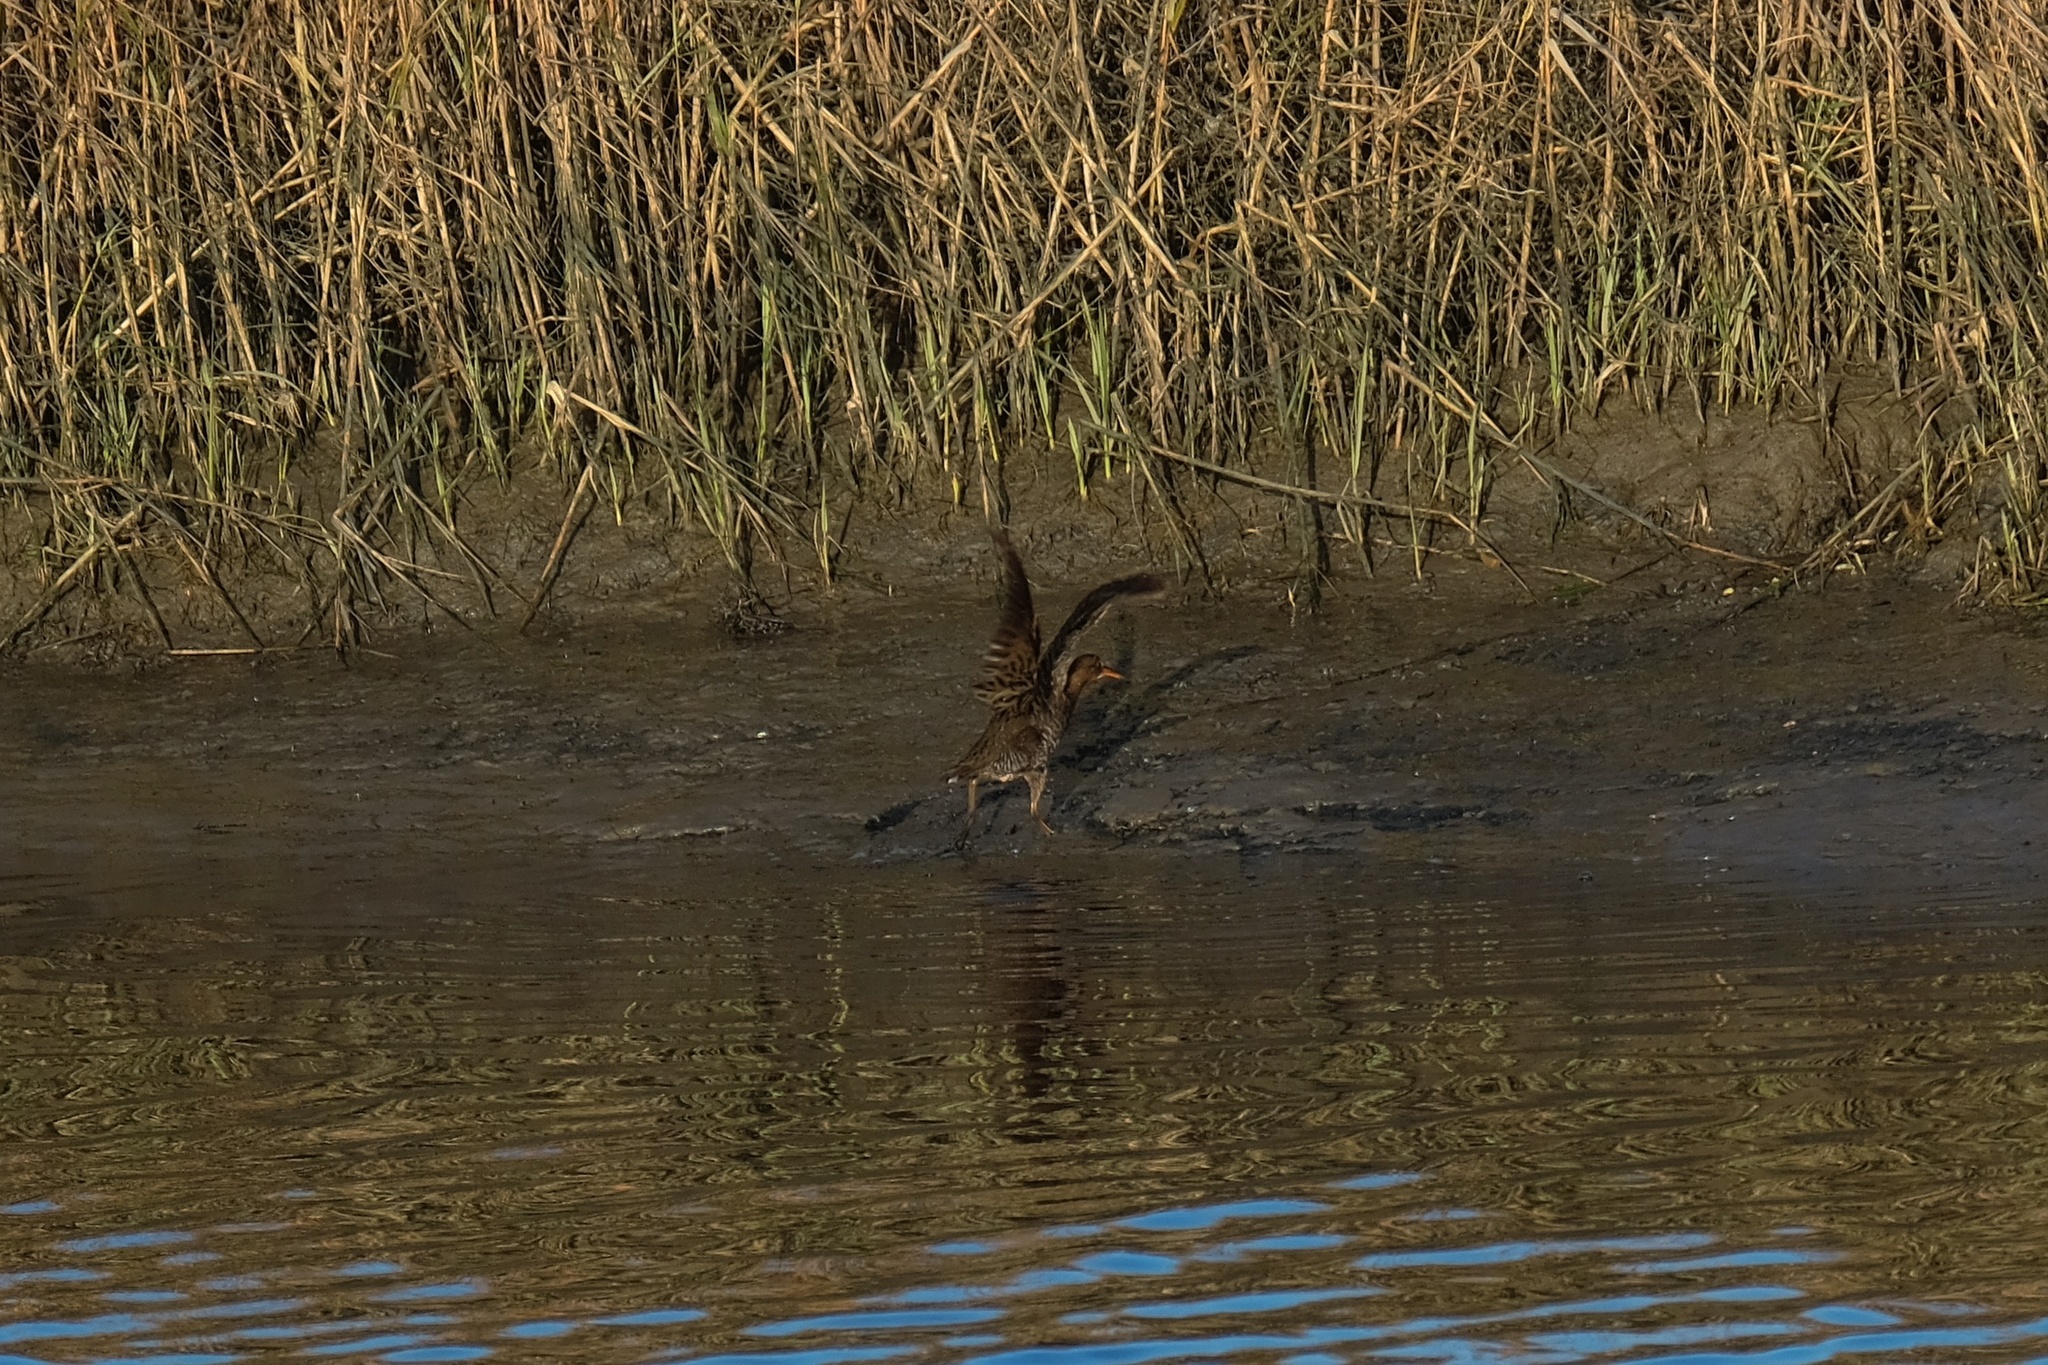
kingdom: Animalia
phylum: Chordata
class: Aves
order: Gruiformes
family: Rallidae
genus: Rallus
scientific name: Rallus obsoletus
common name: Ridgway's rail
